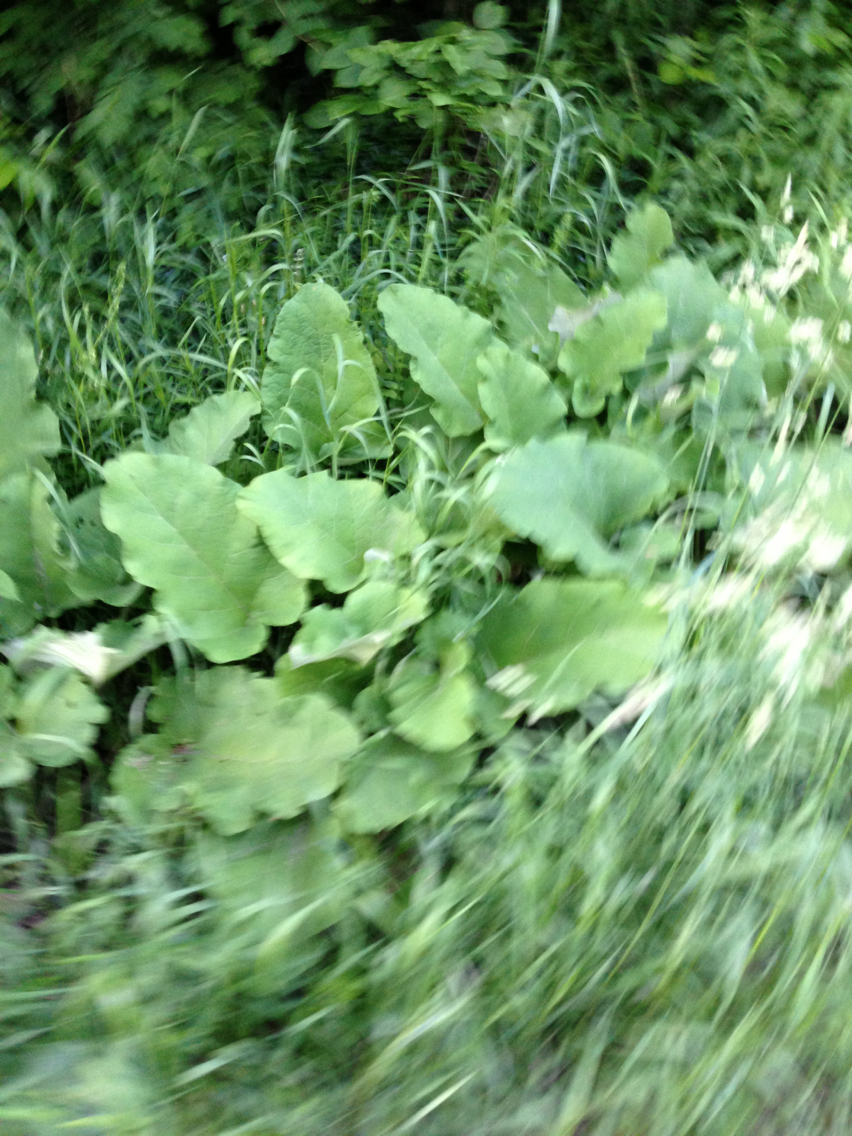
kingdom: Plantae
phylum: Tracheophyta
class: Magnoliopsida
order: Asterales
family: Asteraceae
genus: Arctium
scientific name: Arctium
